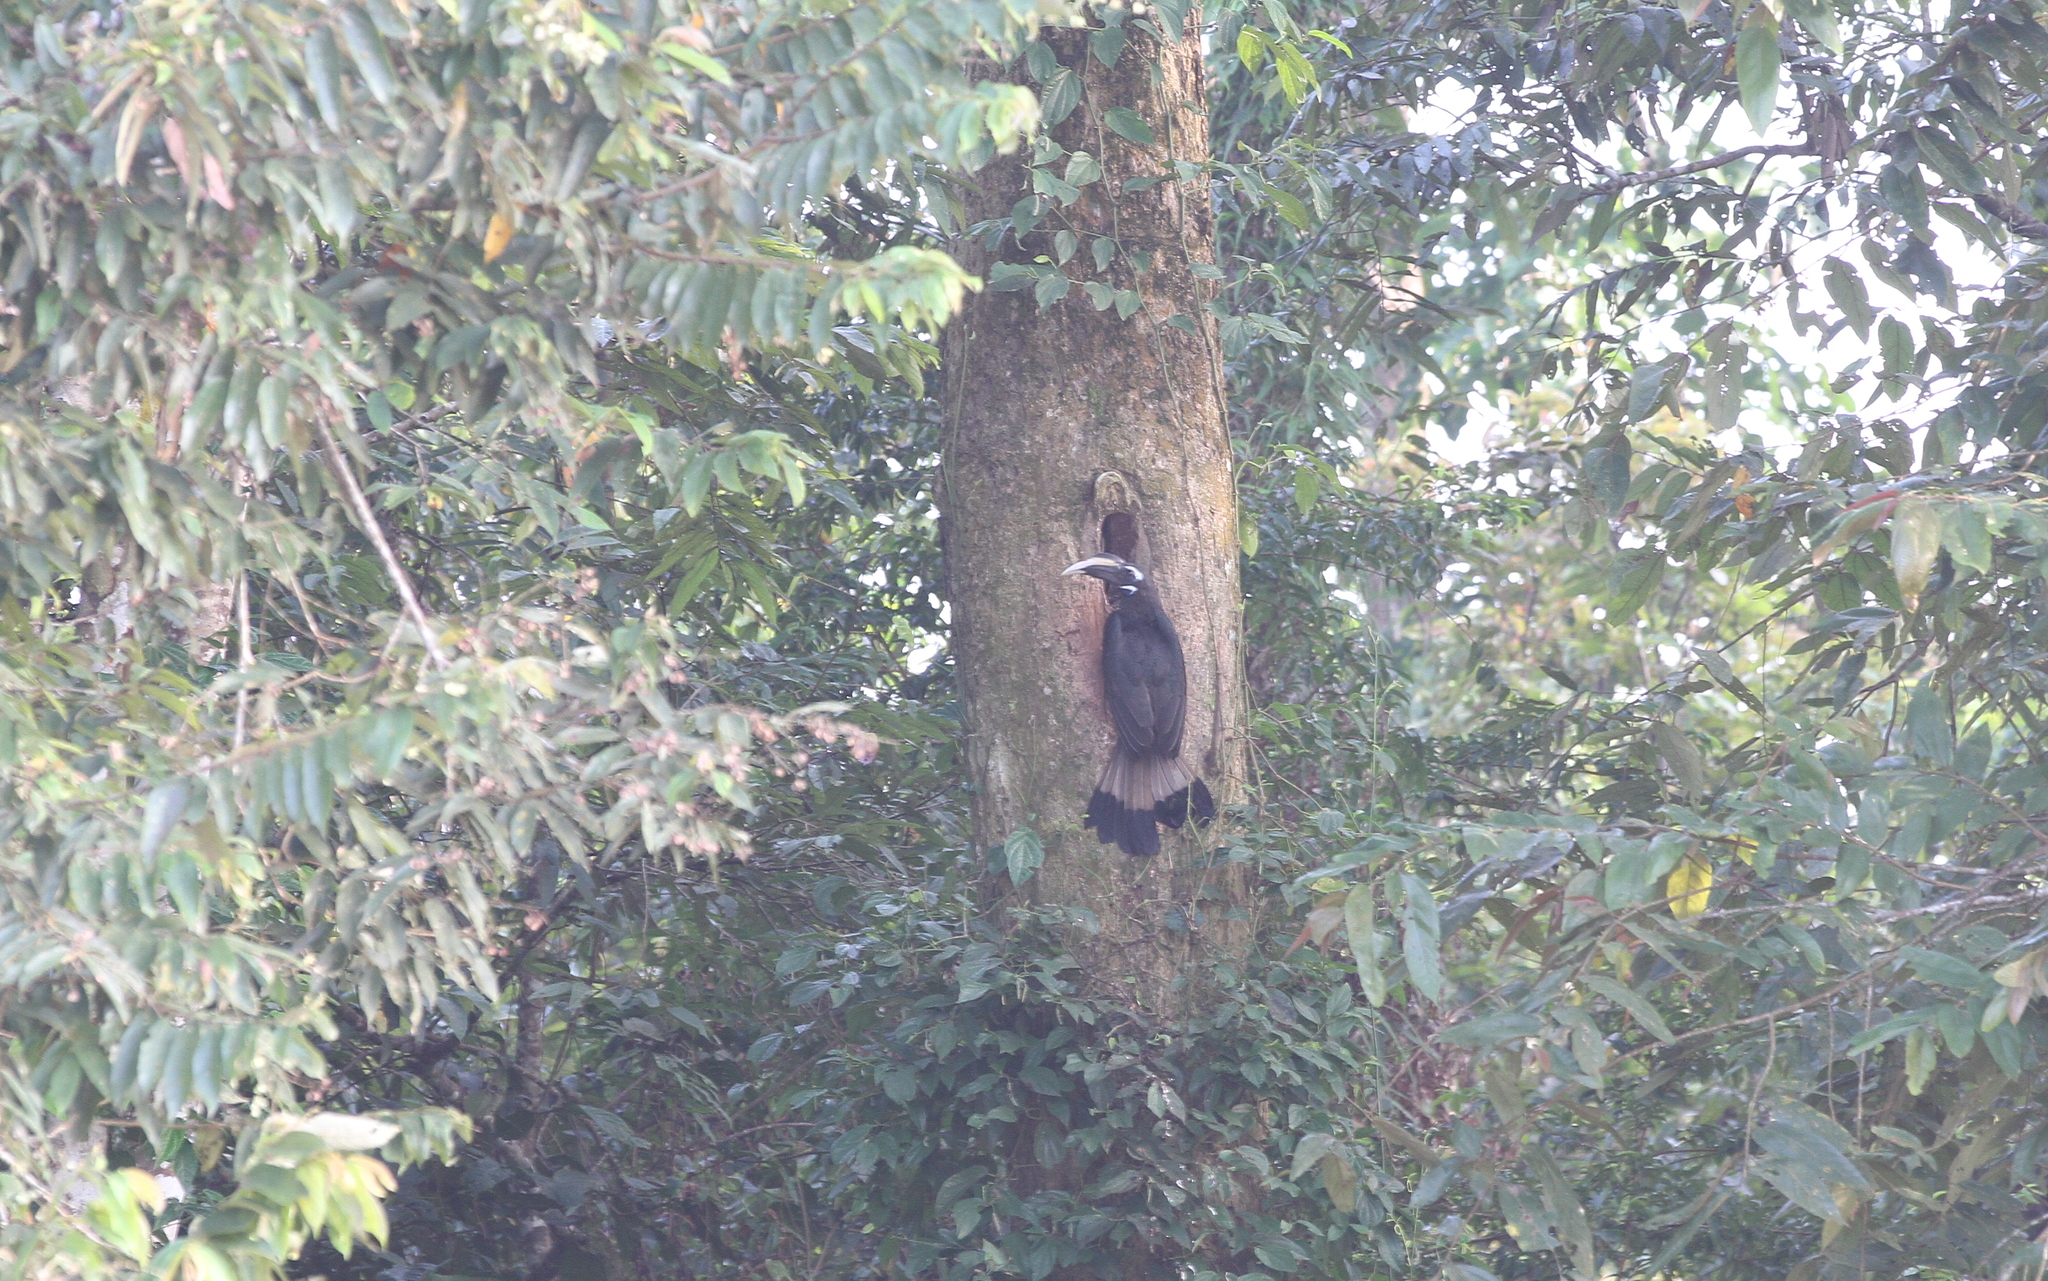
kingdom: Animalia
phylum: Chordata
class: Aves
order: Bucerotiformes
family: Bucerotidae
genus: Anorrhinus
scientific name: Anorrhinus galeritus
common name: Bushy-crested hornbill
